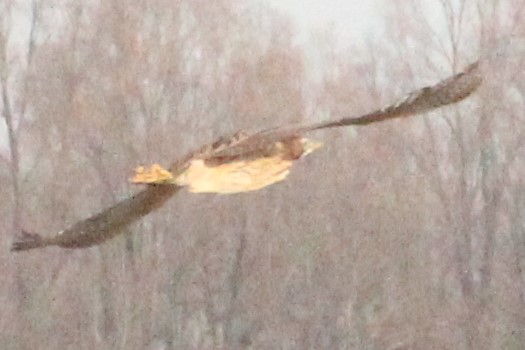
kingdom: Animalia
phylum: Chordata
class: Aves
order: Pelecaniformes
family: Ardeidae
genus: Botaurus
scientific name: Botaurus stellaris
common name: Eurasian bittern
